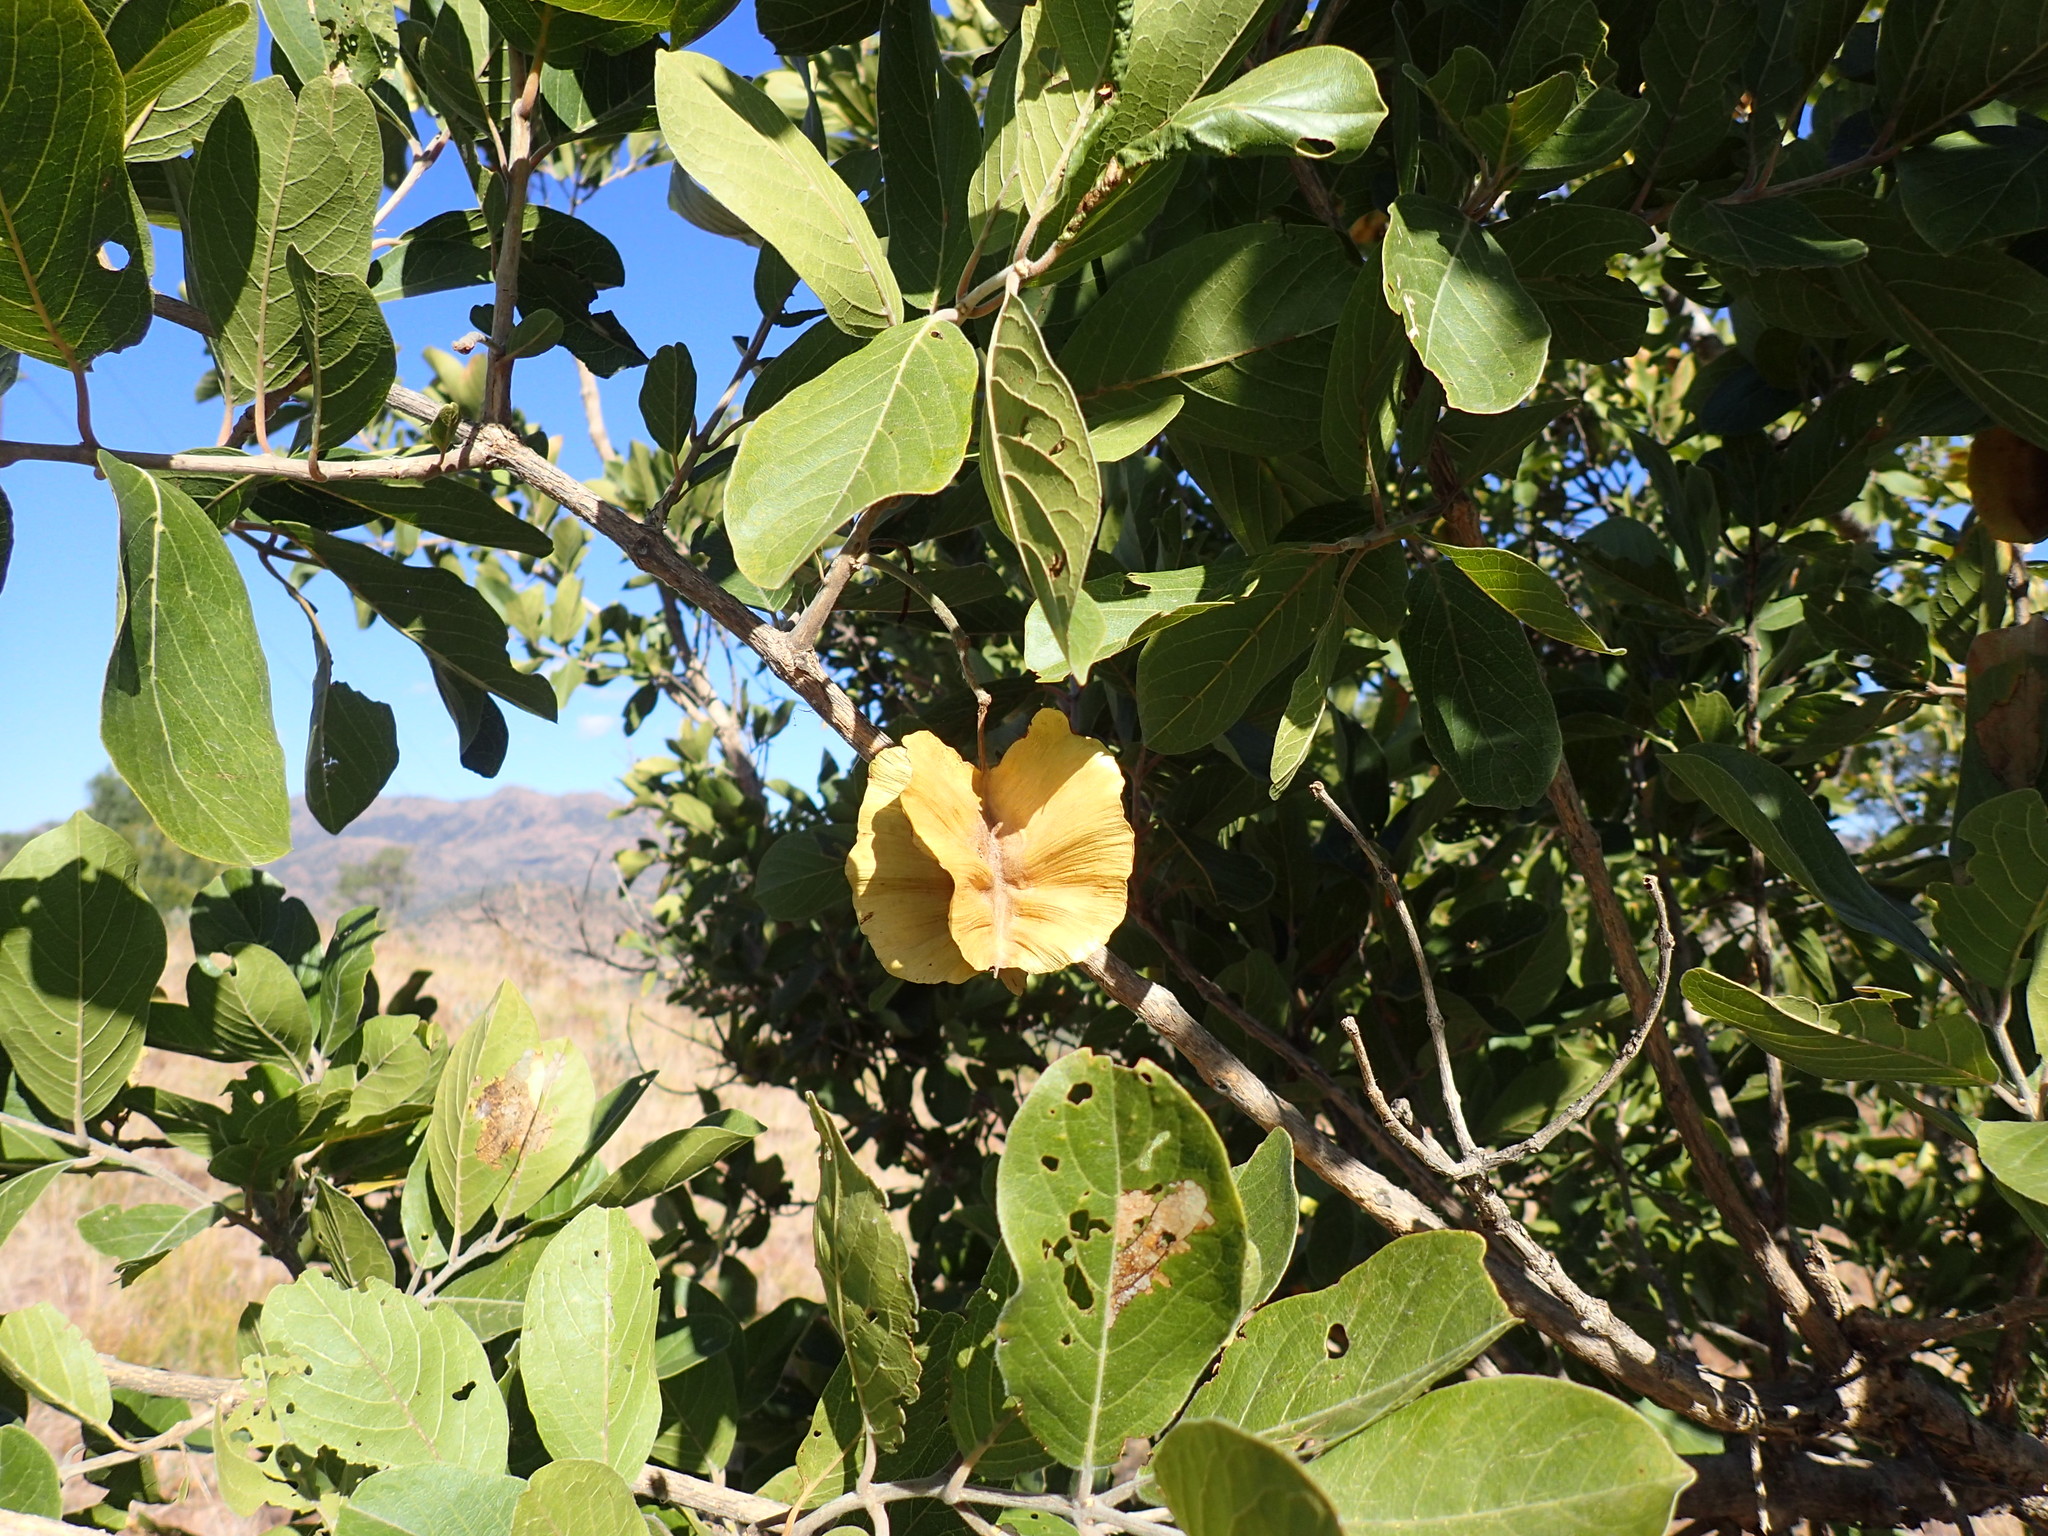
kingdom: Plantae
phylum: Tracheophyta
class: Magnoliopsida
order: Myrtales
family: Combretaceae
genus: Combretum
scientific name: Combretum zeyheri
